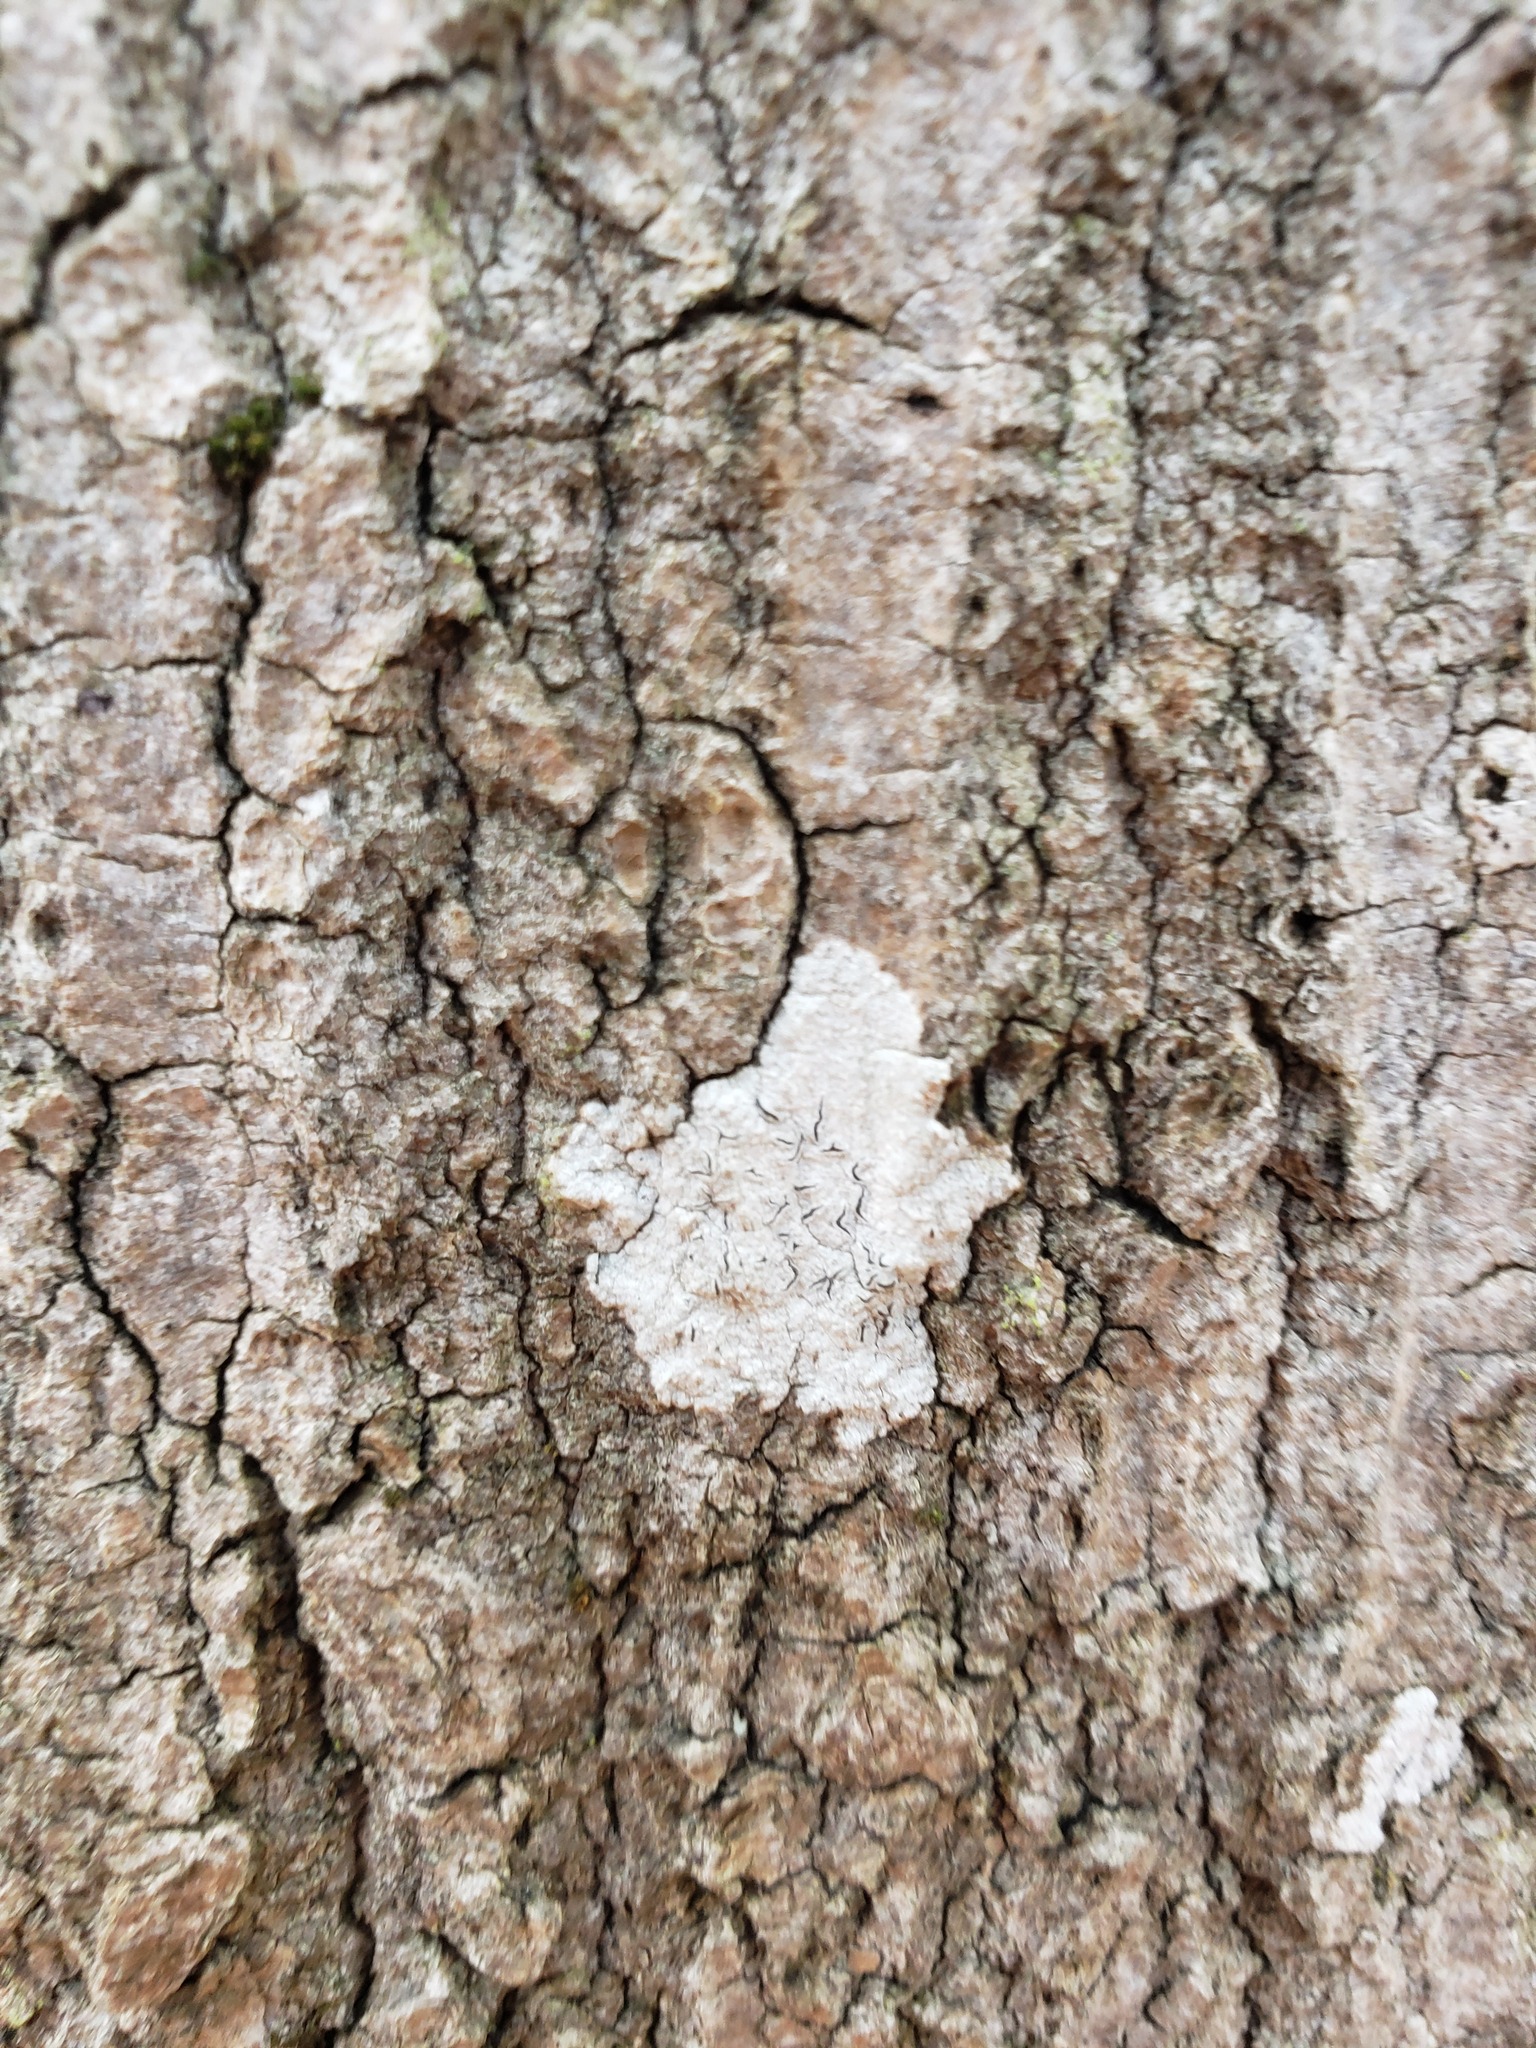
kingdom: Fungi
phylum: Ascomycota
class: Lecanoromycetes
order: Ostropales
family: Graphidaceae
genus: Graphis
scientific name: Graphis scripta
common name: Script lichen
